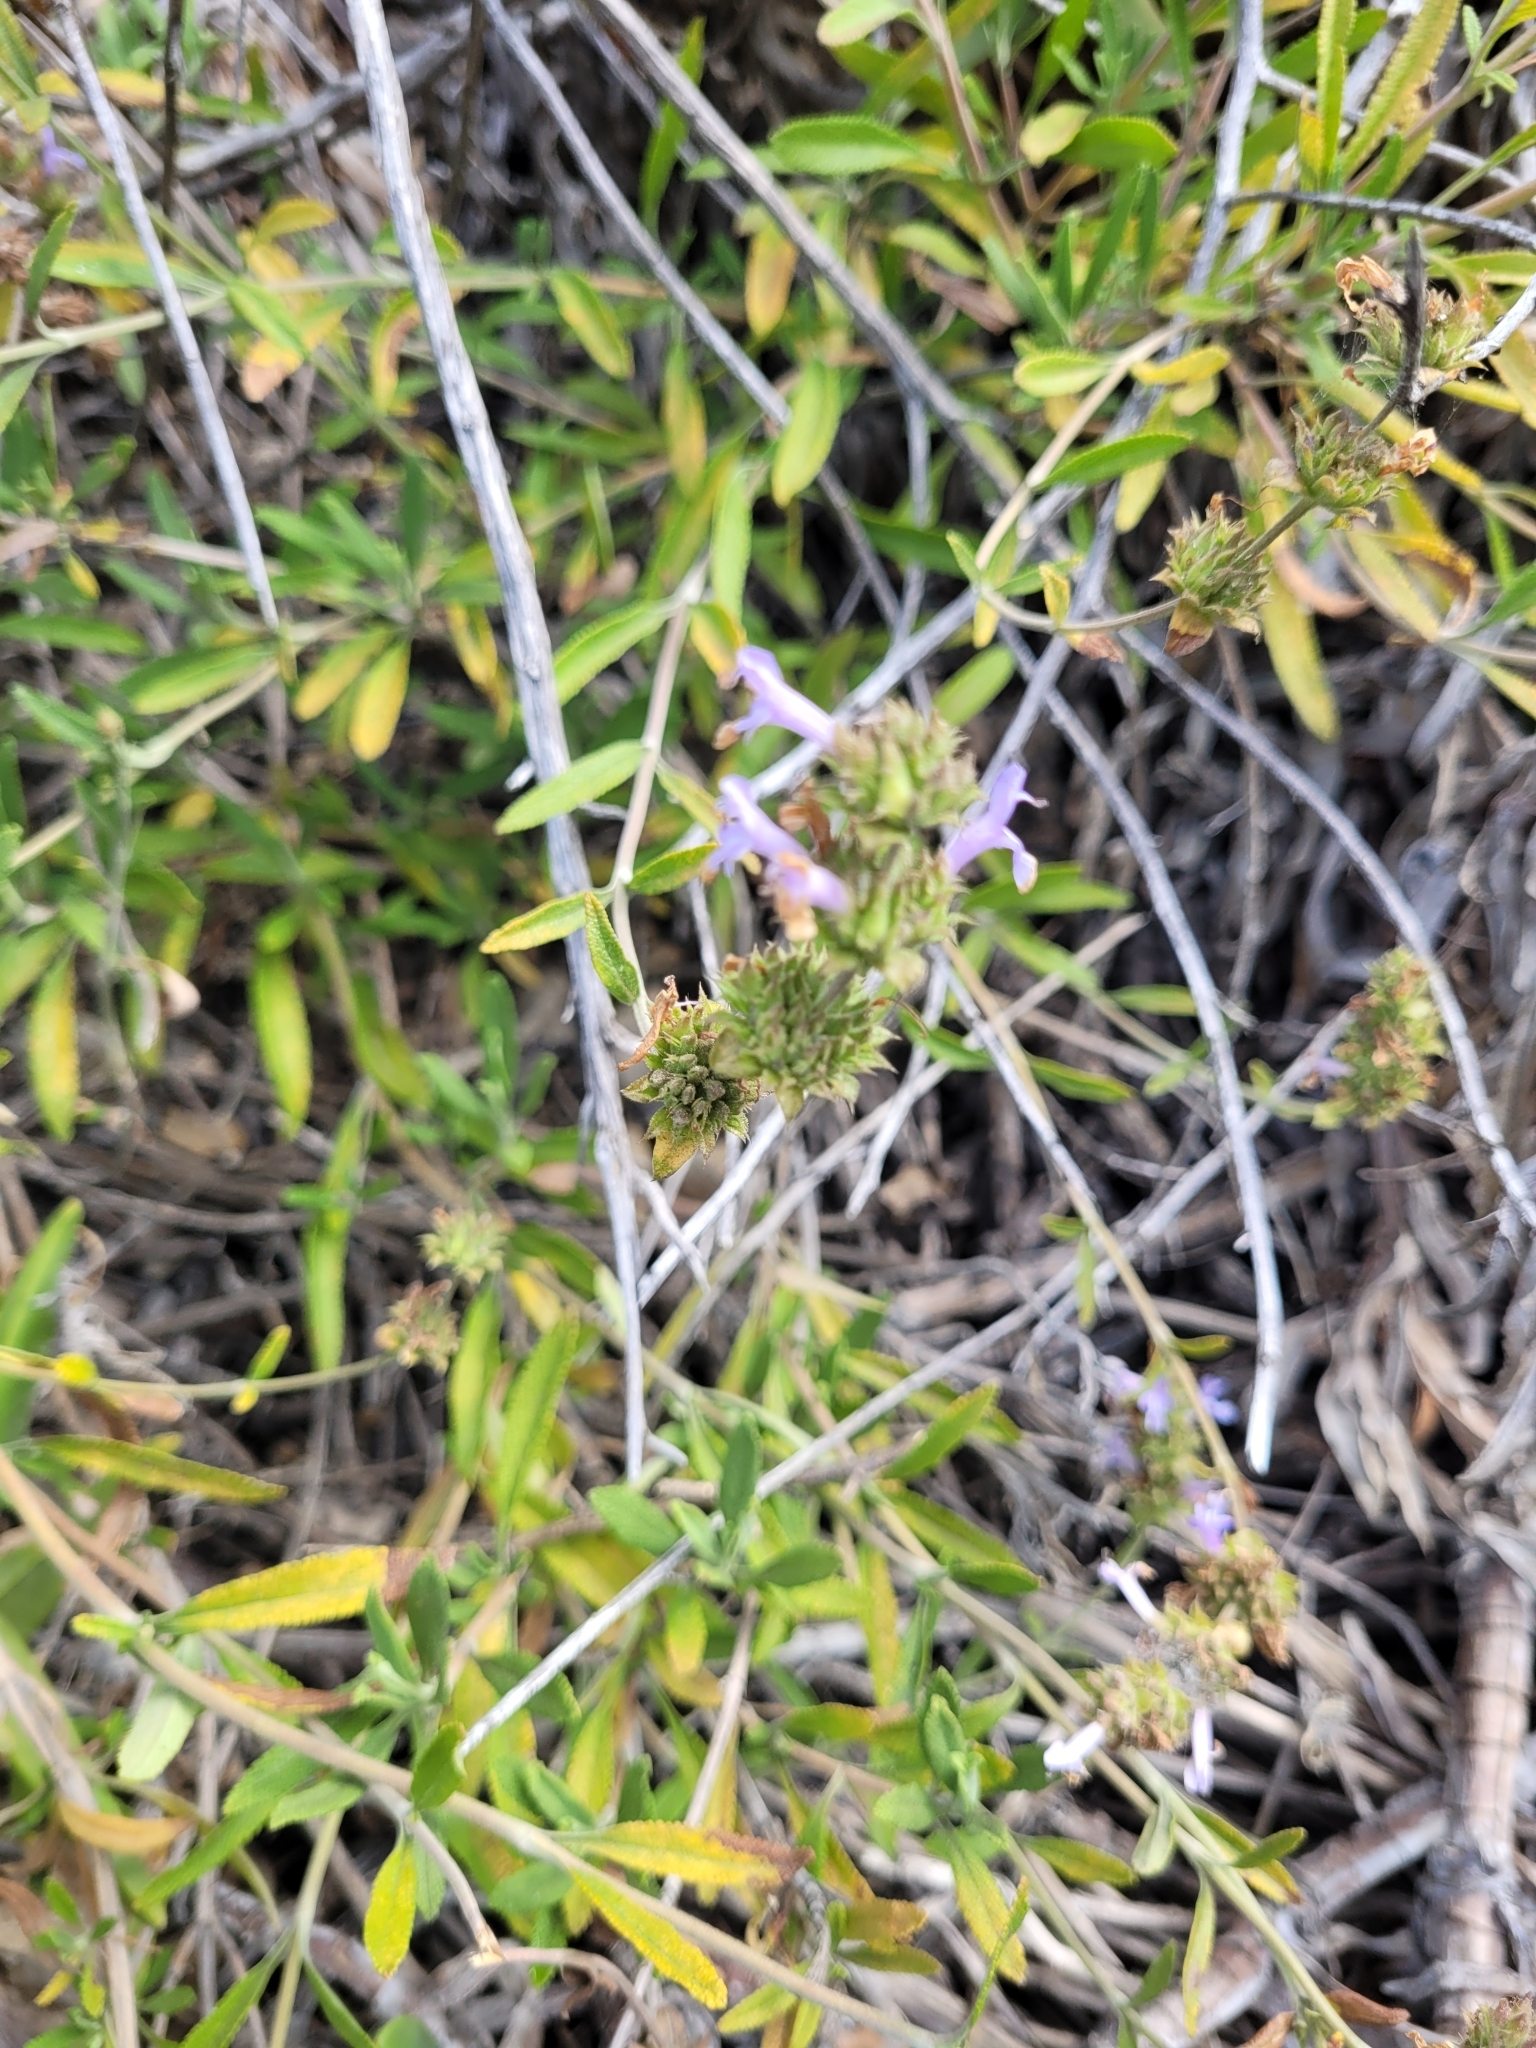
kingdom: Plantae
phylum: Tracheophyta
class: Magnoliopsida
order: Lamiales
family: Lamiaceae
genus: Salvia
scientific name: Salvia mellifera
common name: Black sage
